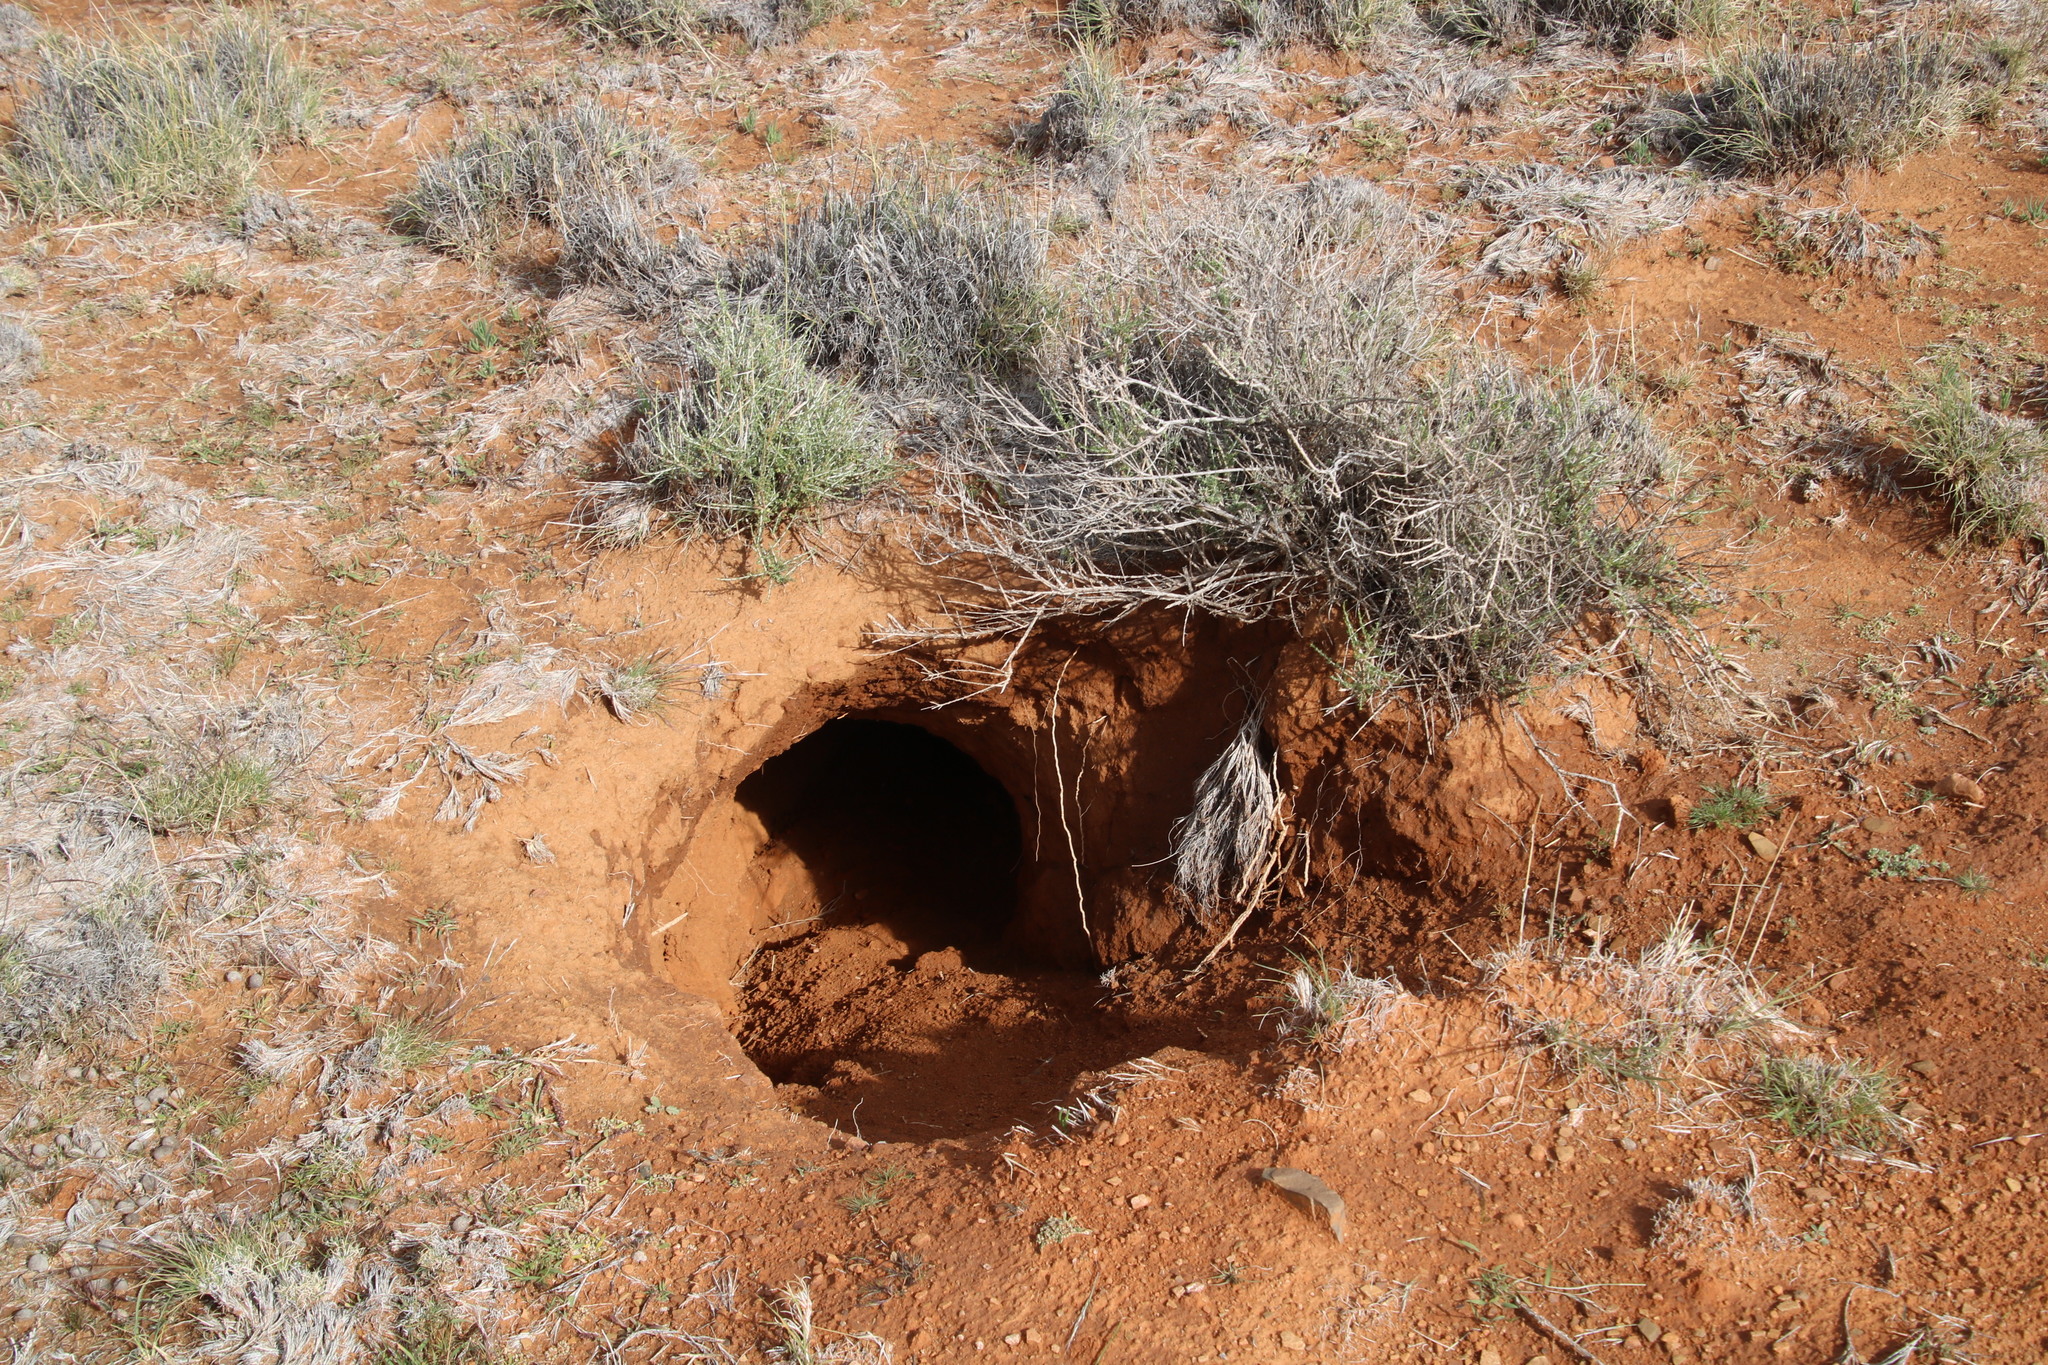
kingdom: Animalia
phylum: Chordata
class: Mammalia
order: Tubulidentata
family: Orycteropodidae
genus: Orycteropus
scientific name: Orycteropus afer
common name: Aardvark
